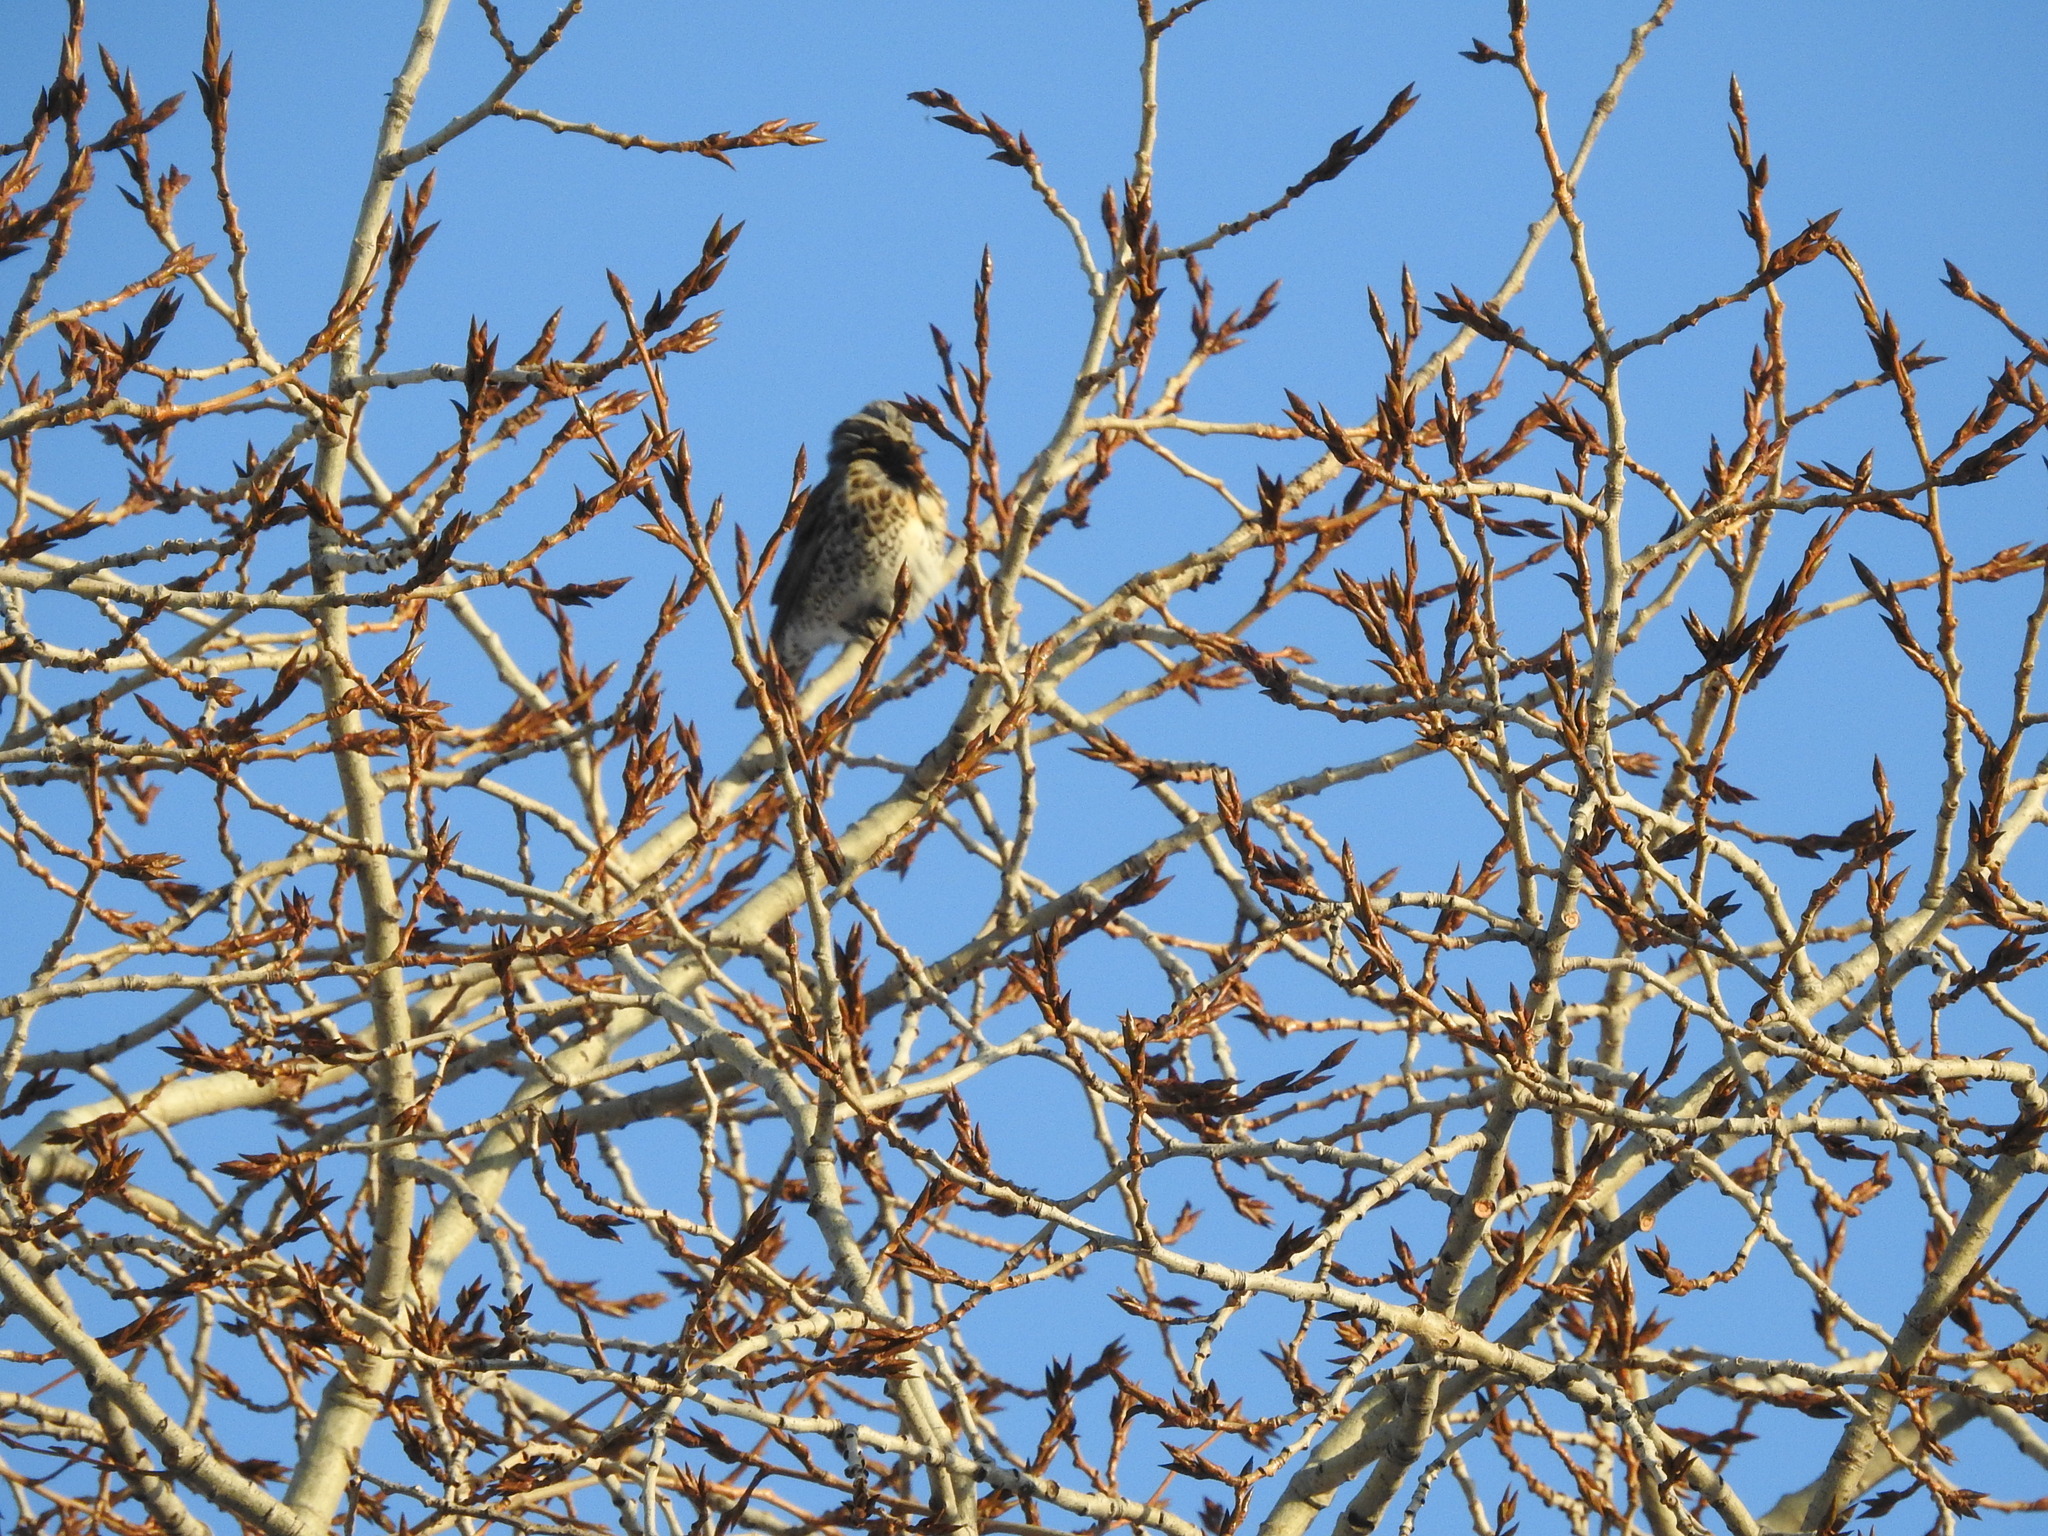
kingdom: Animalia
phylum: Chordata
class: Aves
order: Passeriformes
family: Turdidae
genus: Turdus
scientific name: Turdus pilaris
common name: Fieldfare
